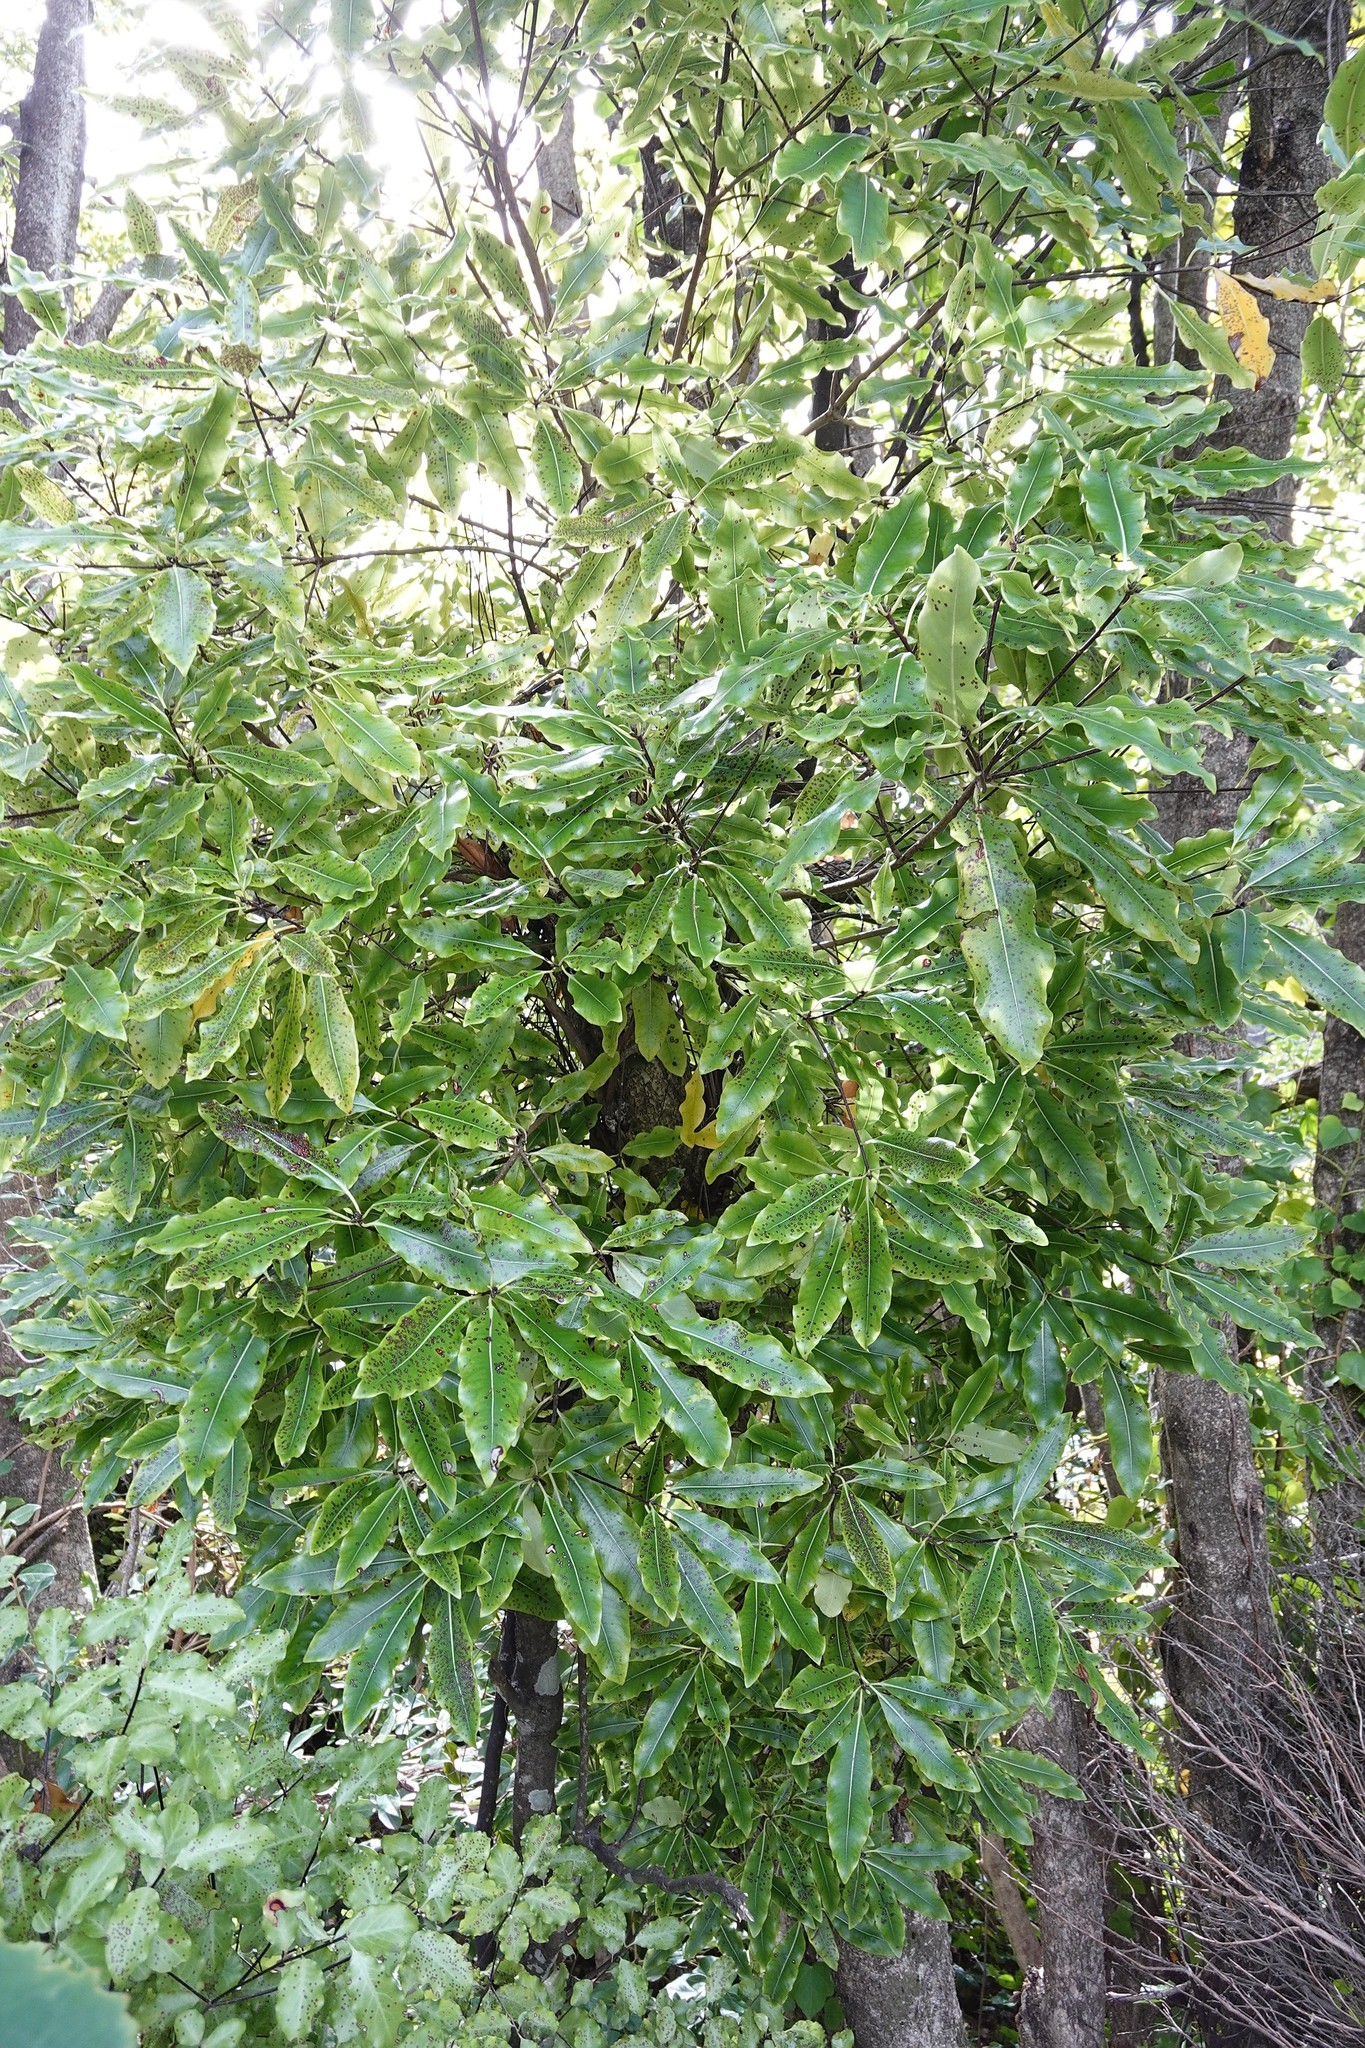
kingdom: Plantae
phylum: Tracheophyta
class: Magnoliopsida
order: Apiales
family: Pittosporaceae
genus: Pittosporum
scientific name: Pittosporum eugenioides
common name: Lemonwood
